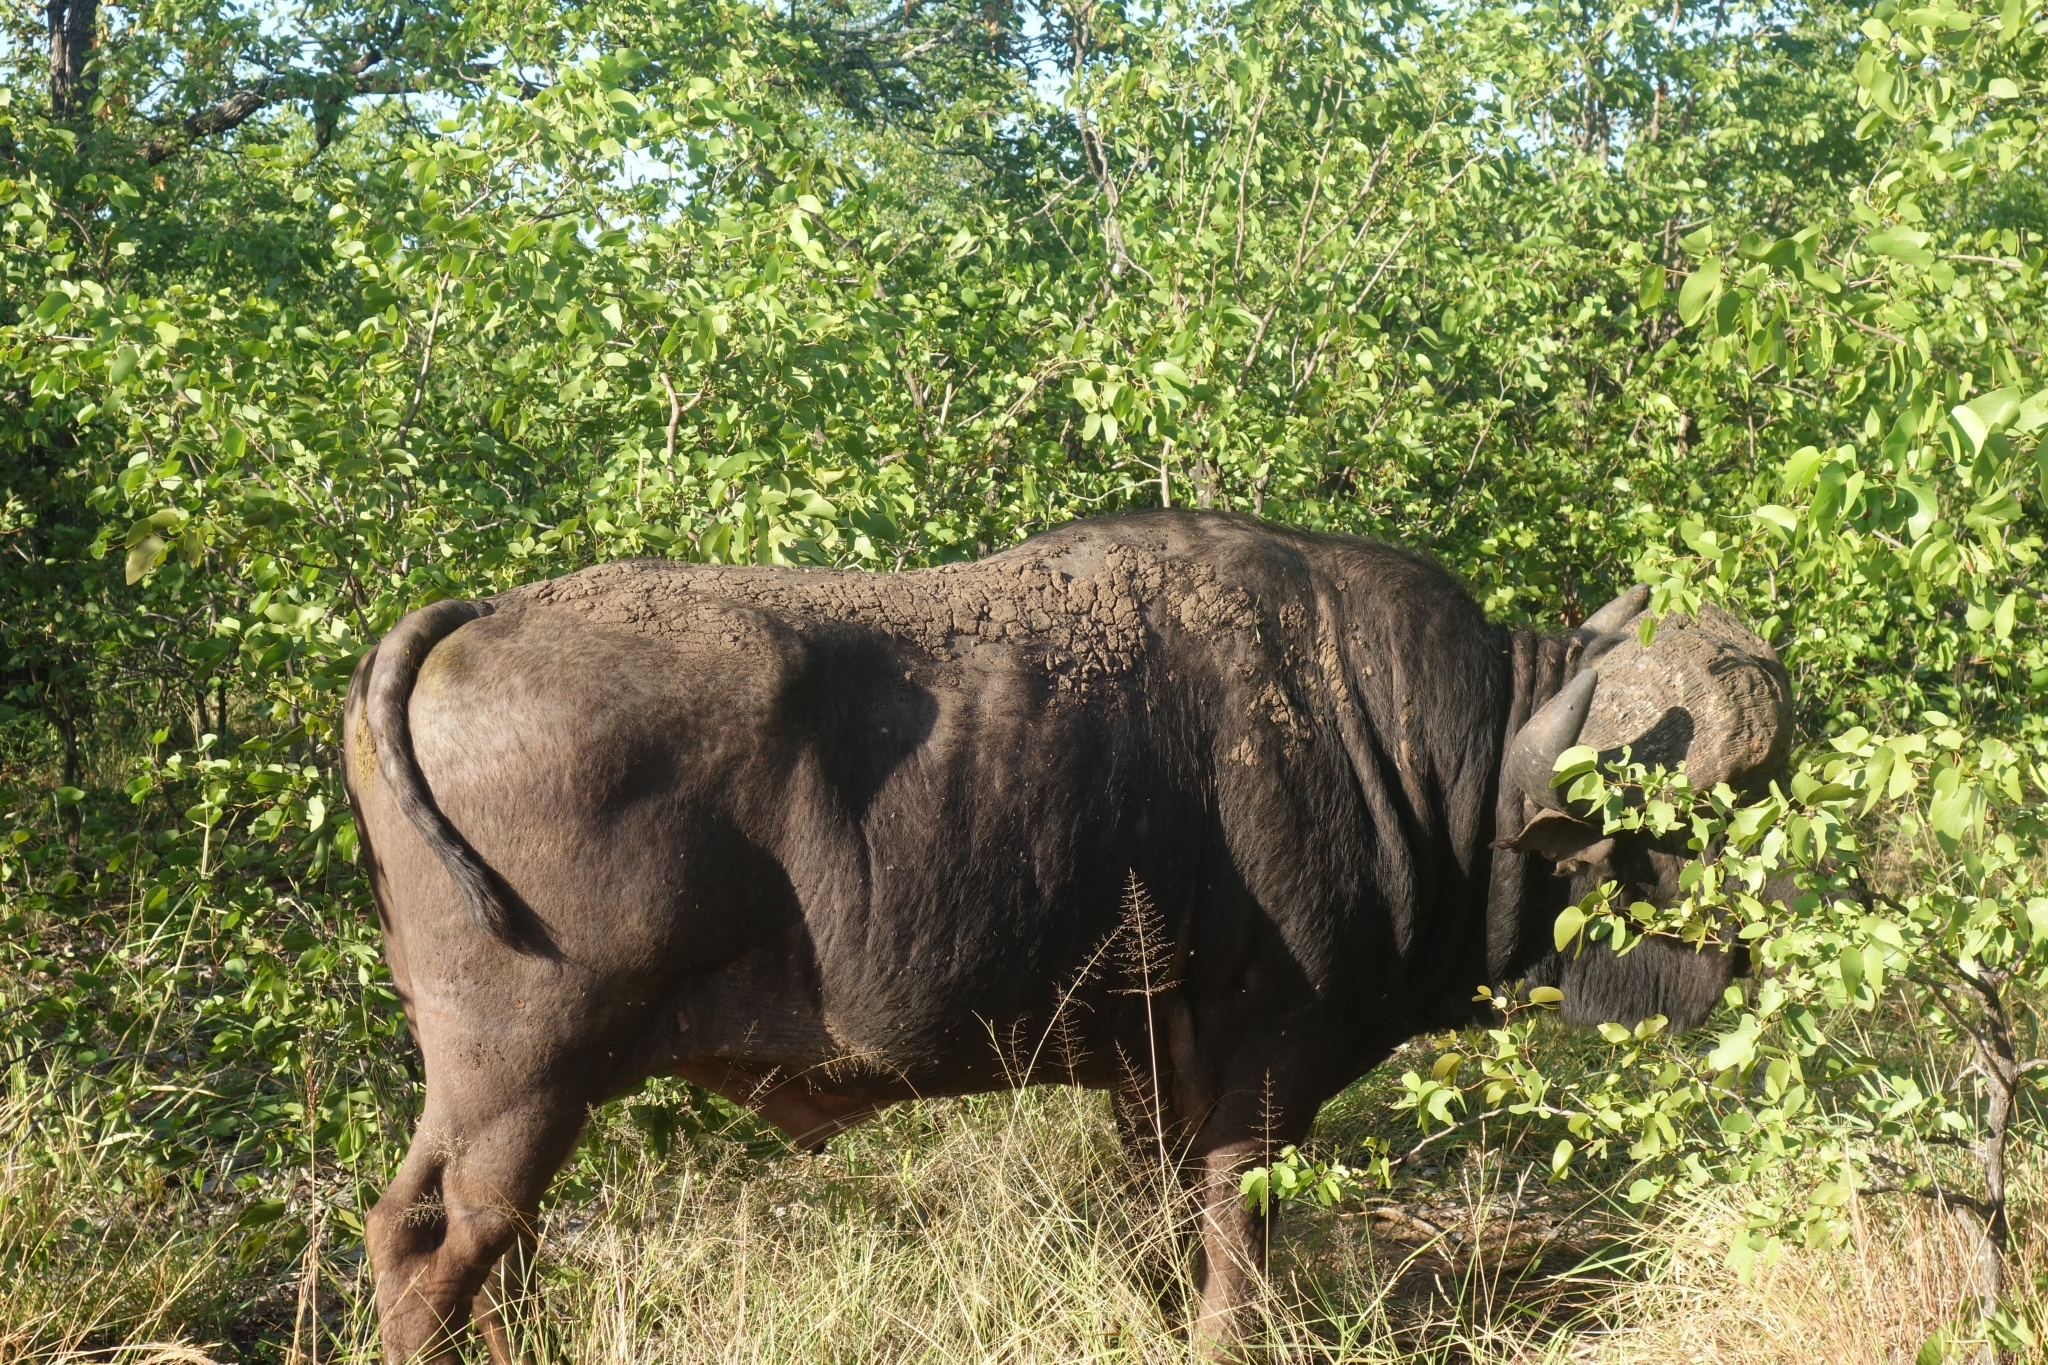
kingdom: Animalia
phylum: Chordata
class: Mammalia
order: Artiodactyla
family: Bovidae
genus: Syncerus
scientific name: Syncerus caffer
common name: African buffalo
